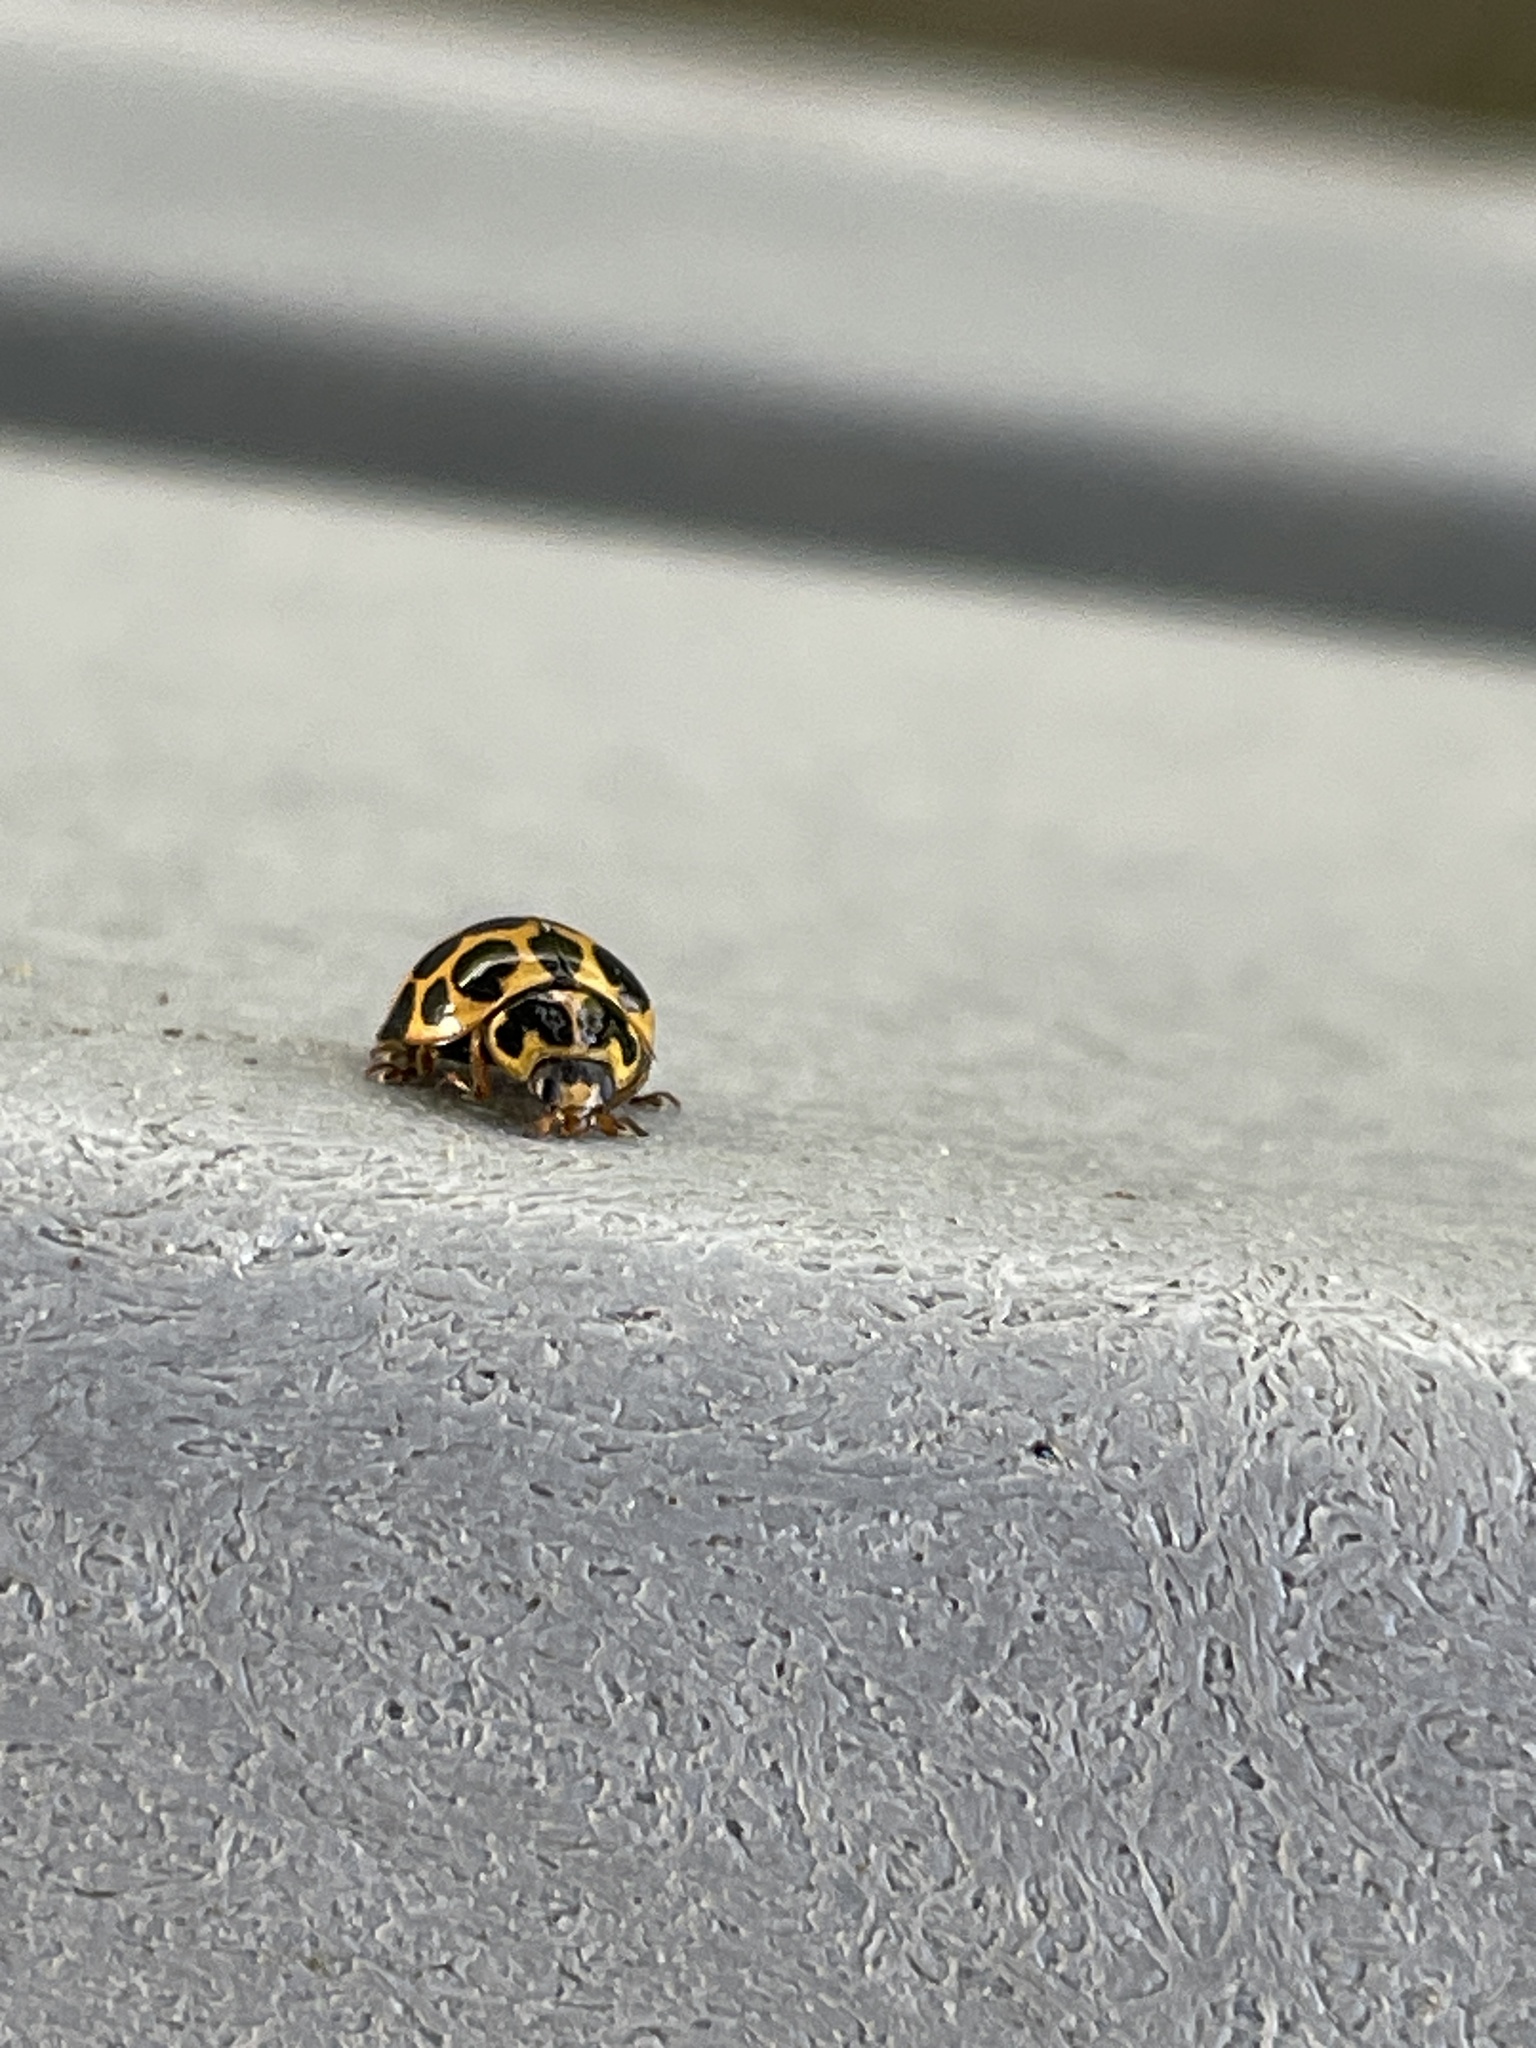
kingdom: Animalia
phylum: Arthropoda
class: Insecta
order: Coleoptera
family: Coccinellidae
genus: Harmonia
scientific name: Harmonia conformis
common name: Common spotted ladybird beetle
